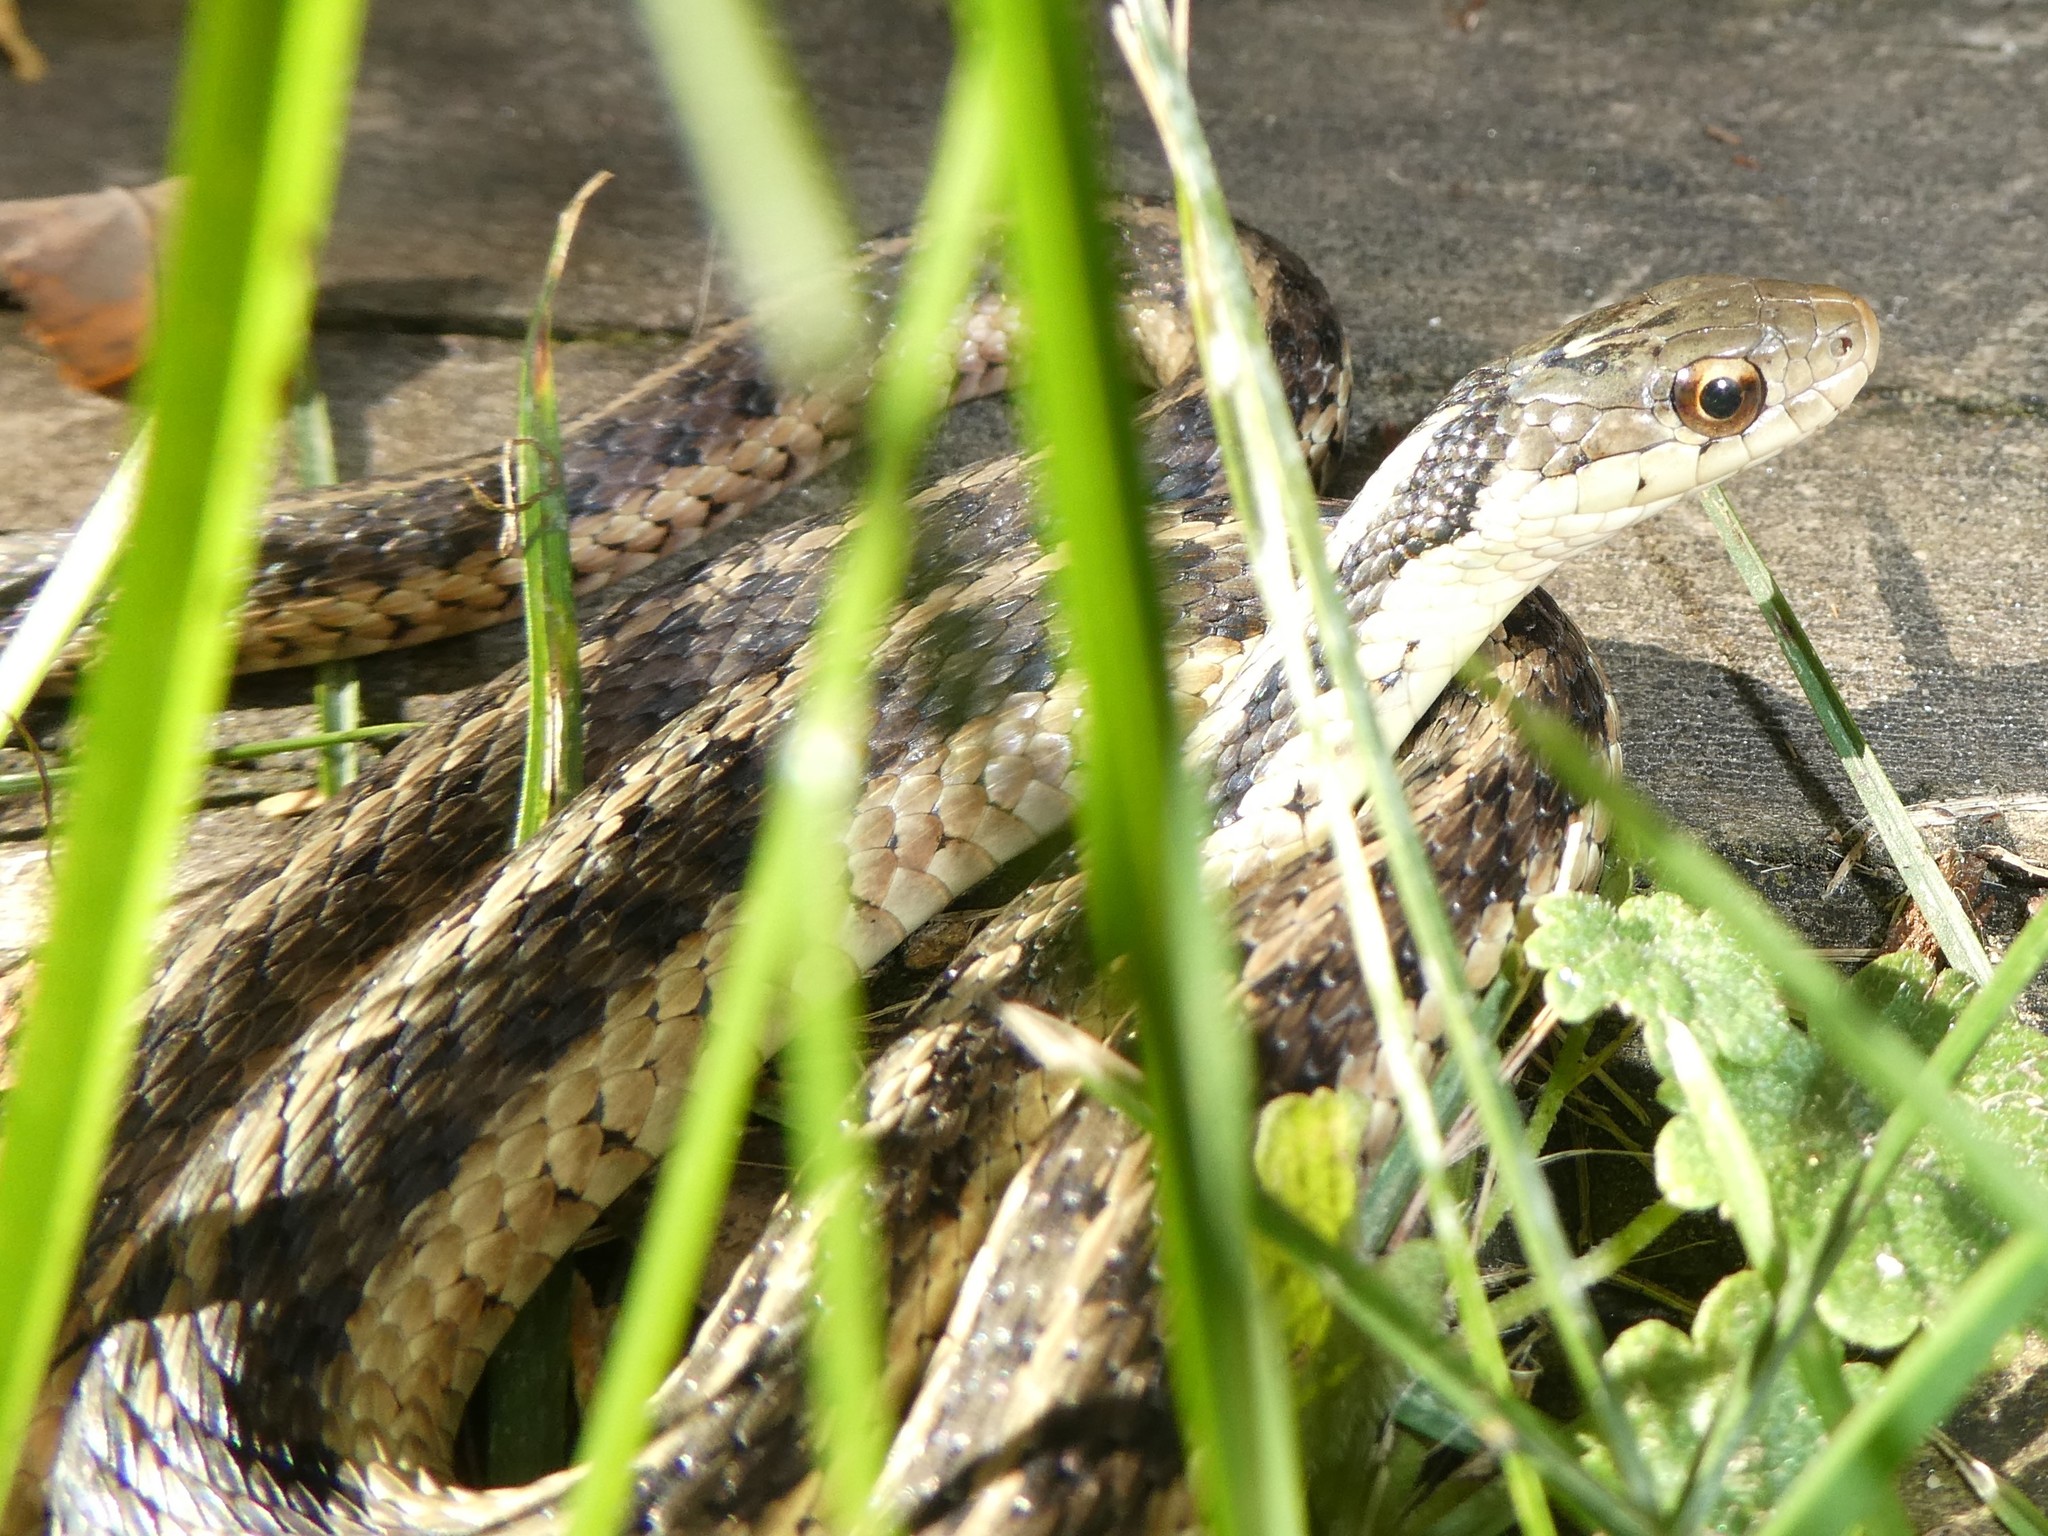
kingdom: Animalia
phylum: Chordata
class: Squamata
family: Colubridae
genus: Thamnophis
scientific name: Thamnophis sirtalis
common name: Common garter snake
